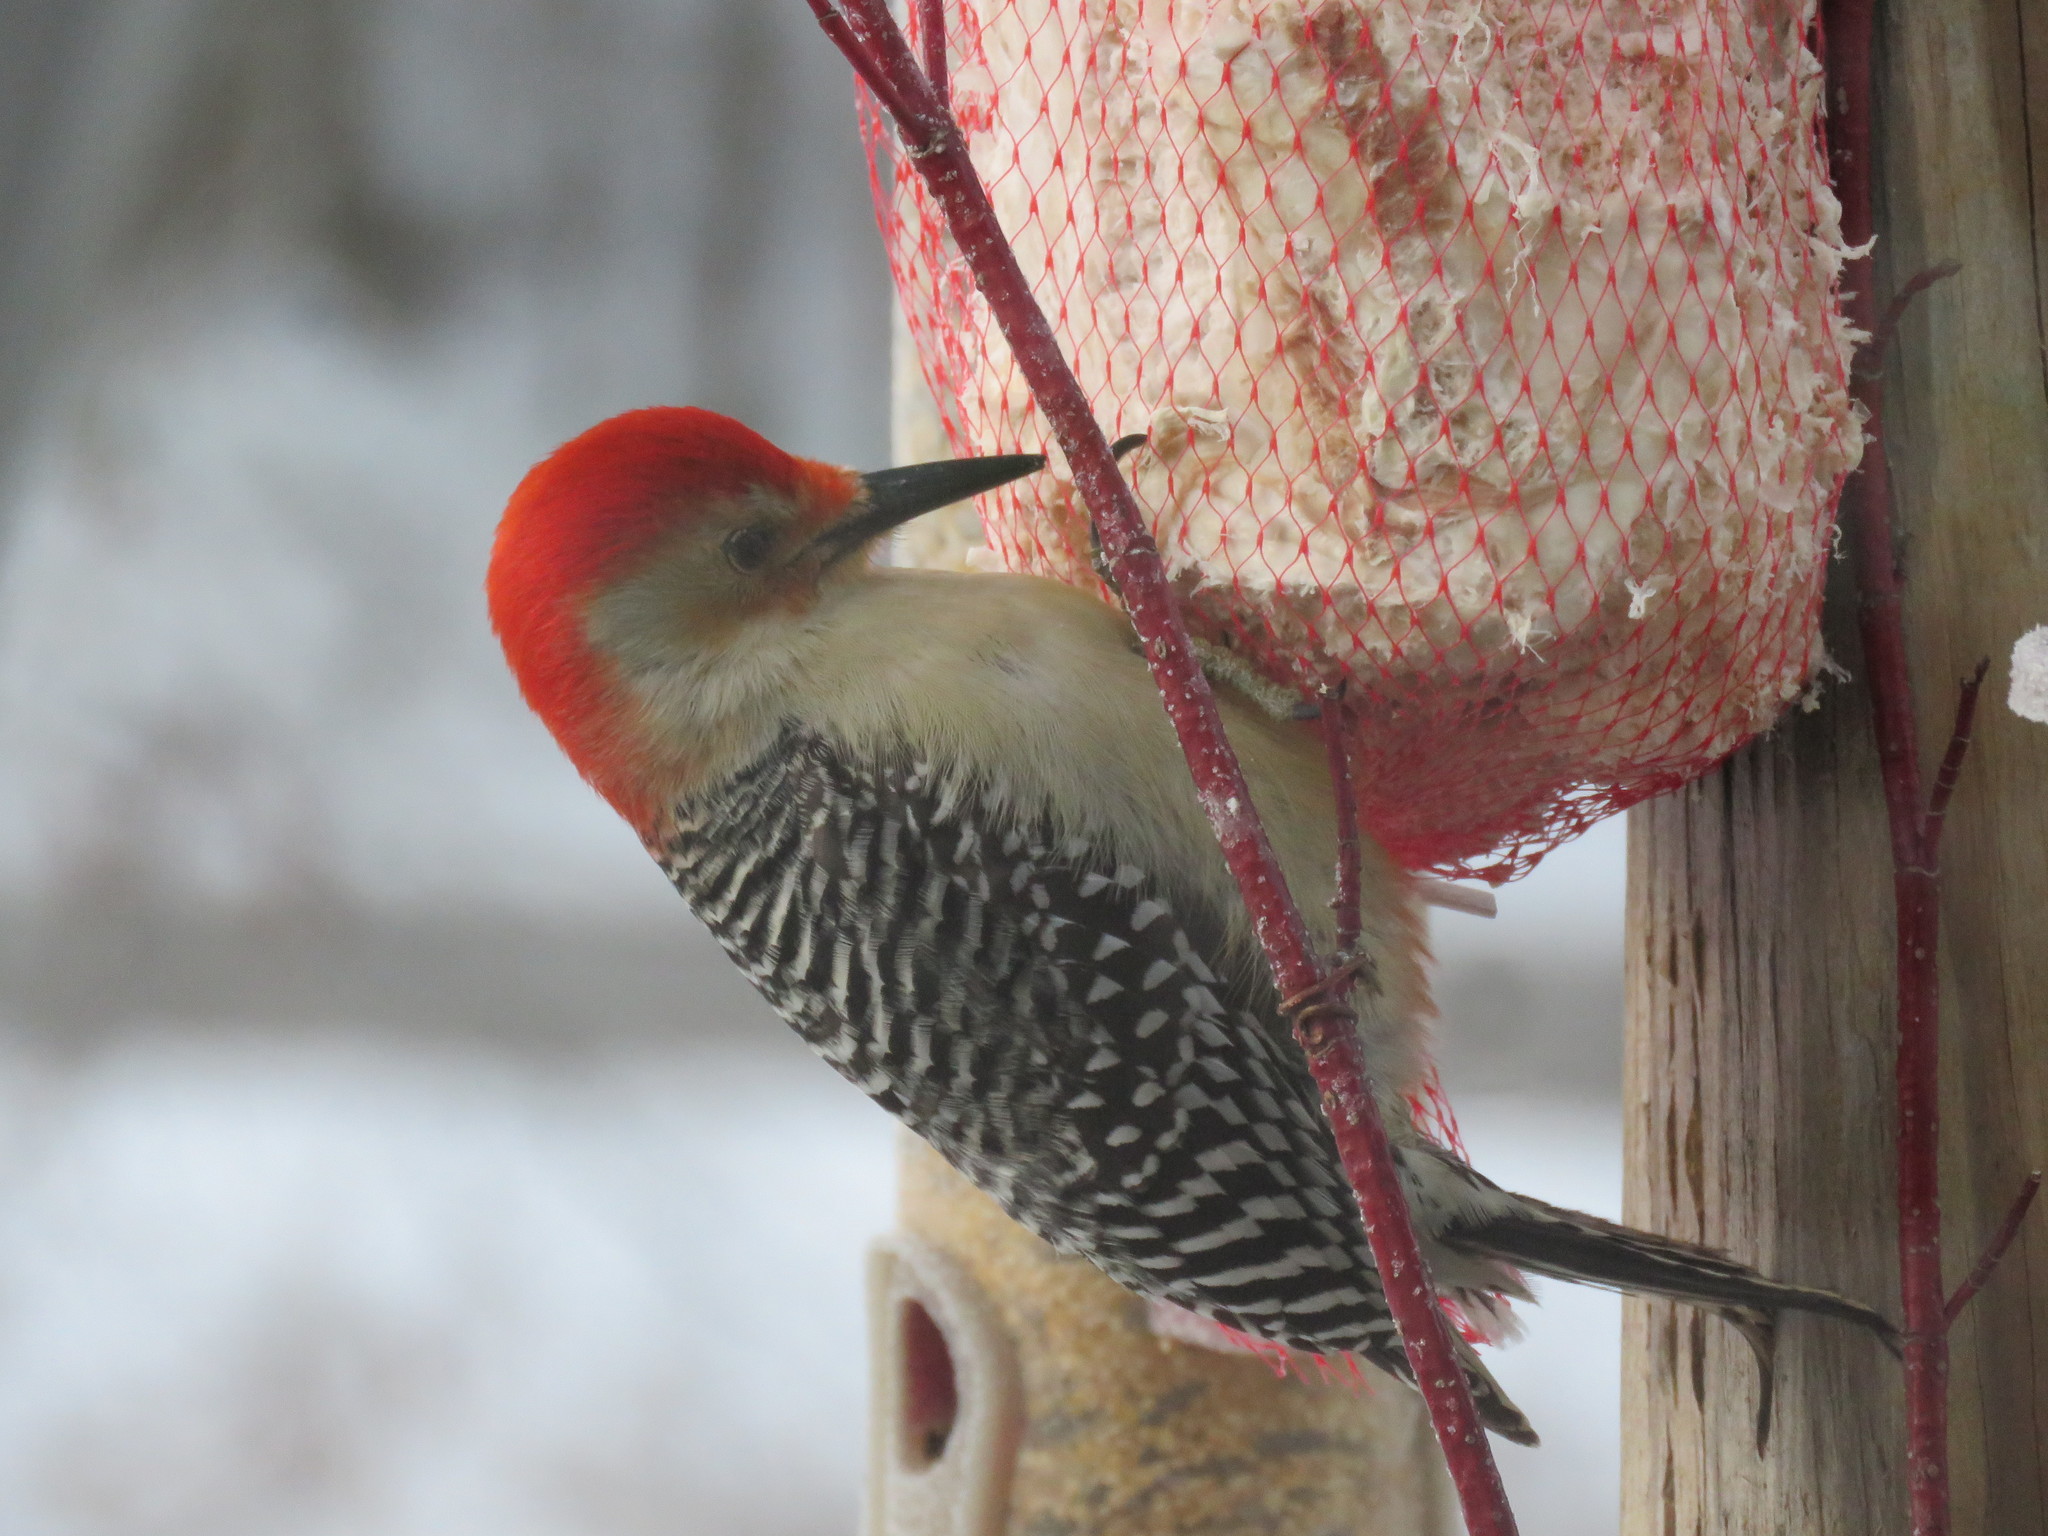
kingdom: Animalia
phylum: Chordata
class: Aves
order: Piciformes
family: Picidae
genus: Melanerpes
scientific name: Melanerpes carolinus
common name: Red-bellied woodpecker
